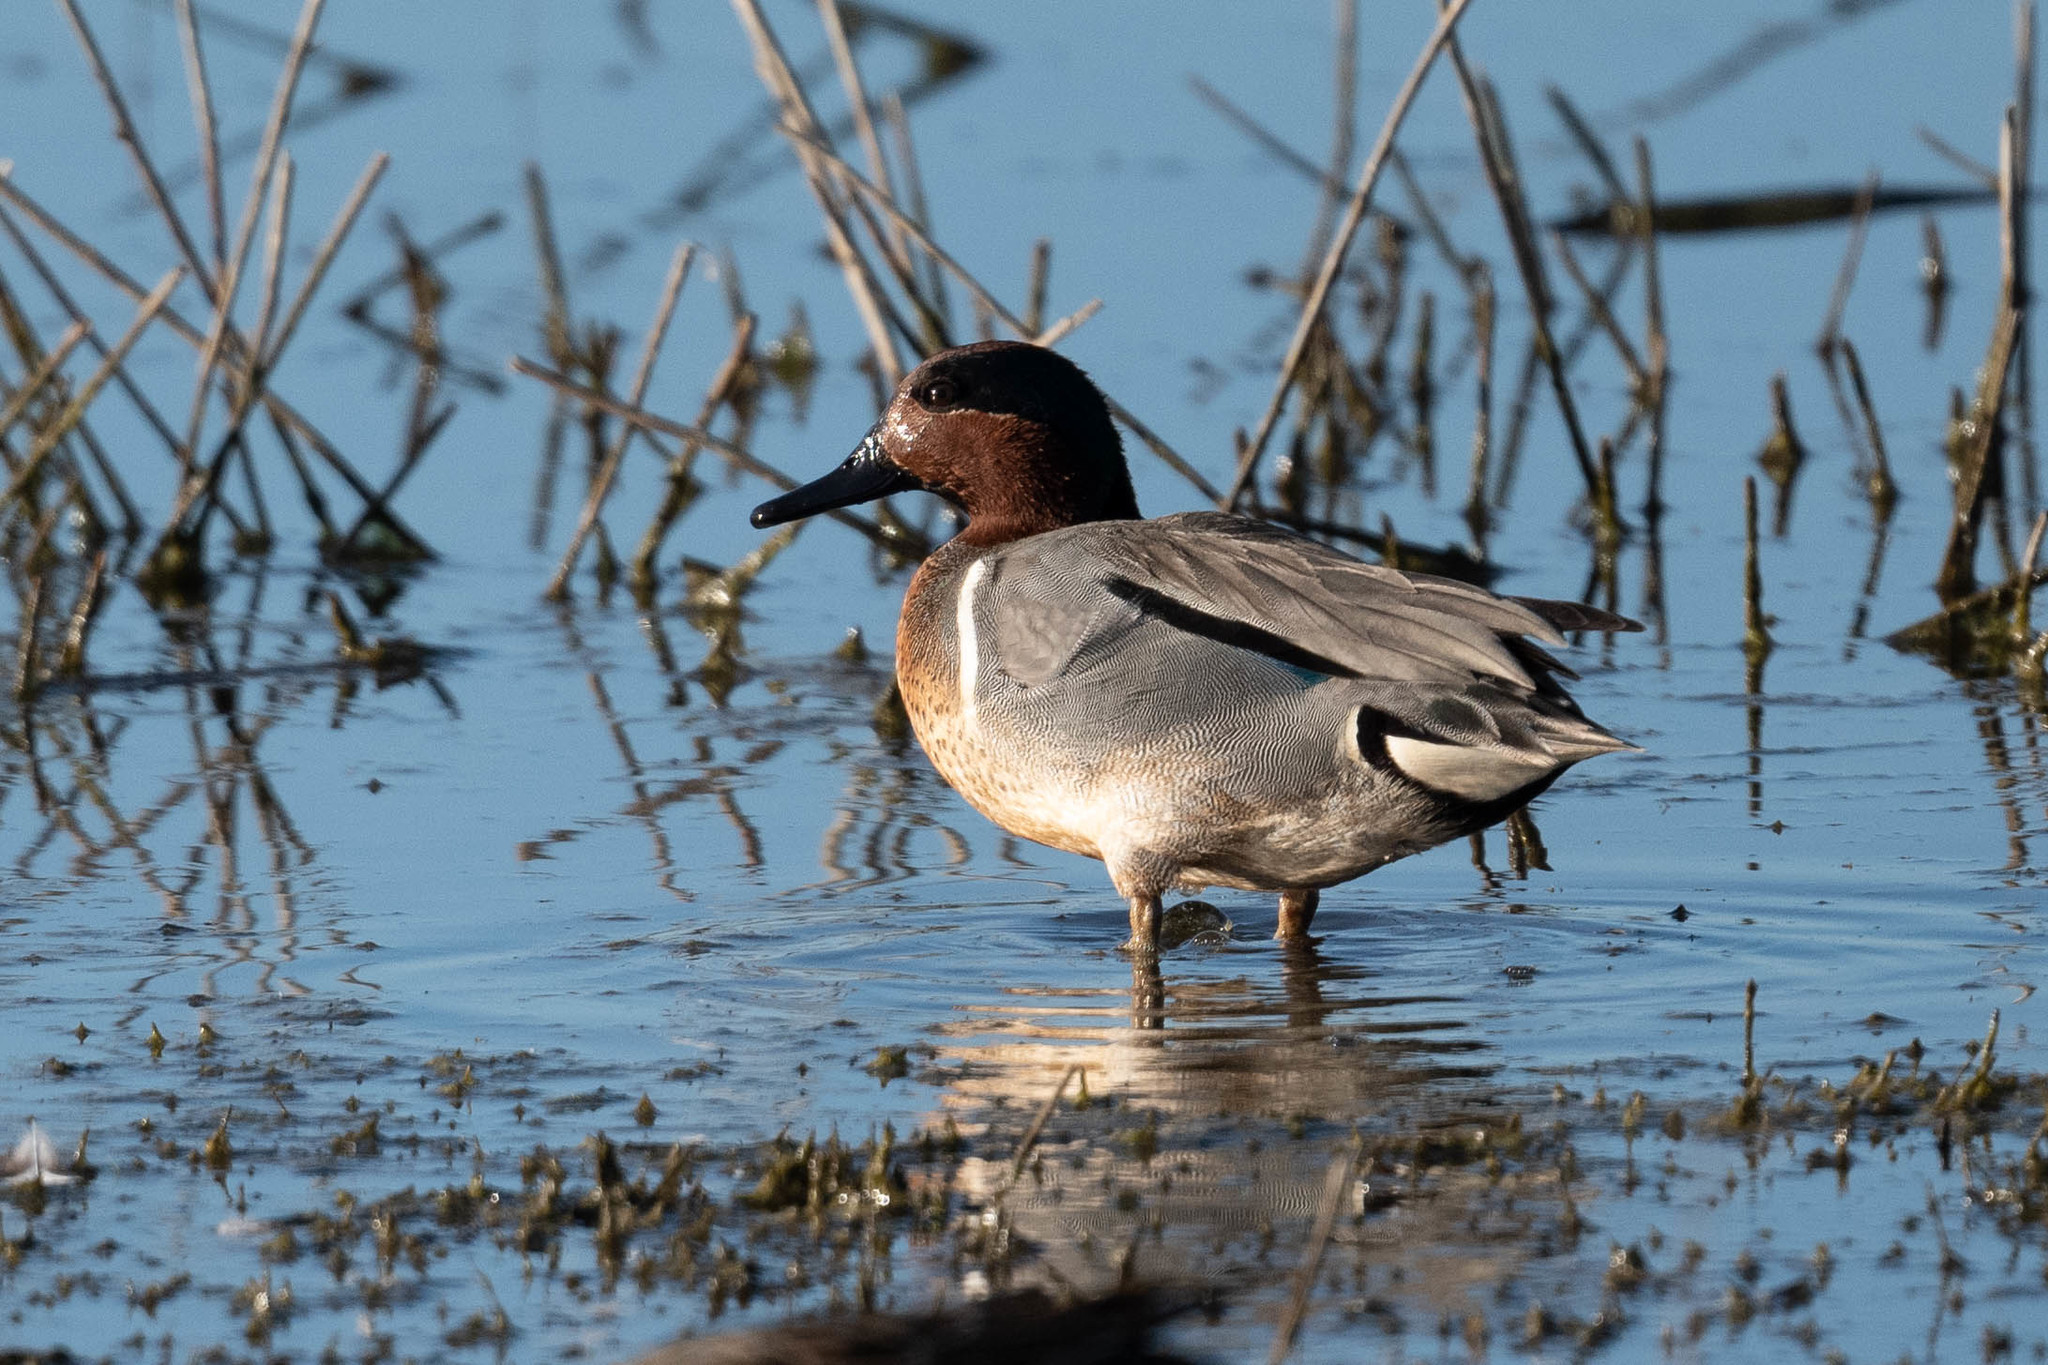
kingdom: Animalia
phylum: Chordata
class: Aves
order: Anseriformes
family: Anatidae
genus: Anas
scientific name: Anas crecca
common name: Eurasian teal
